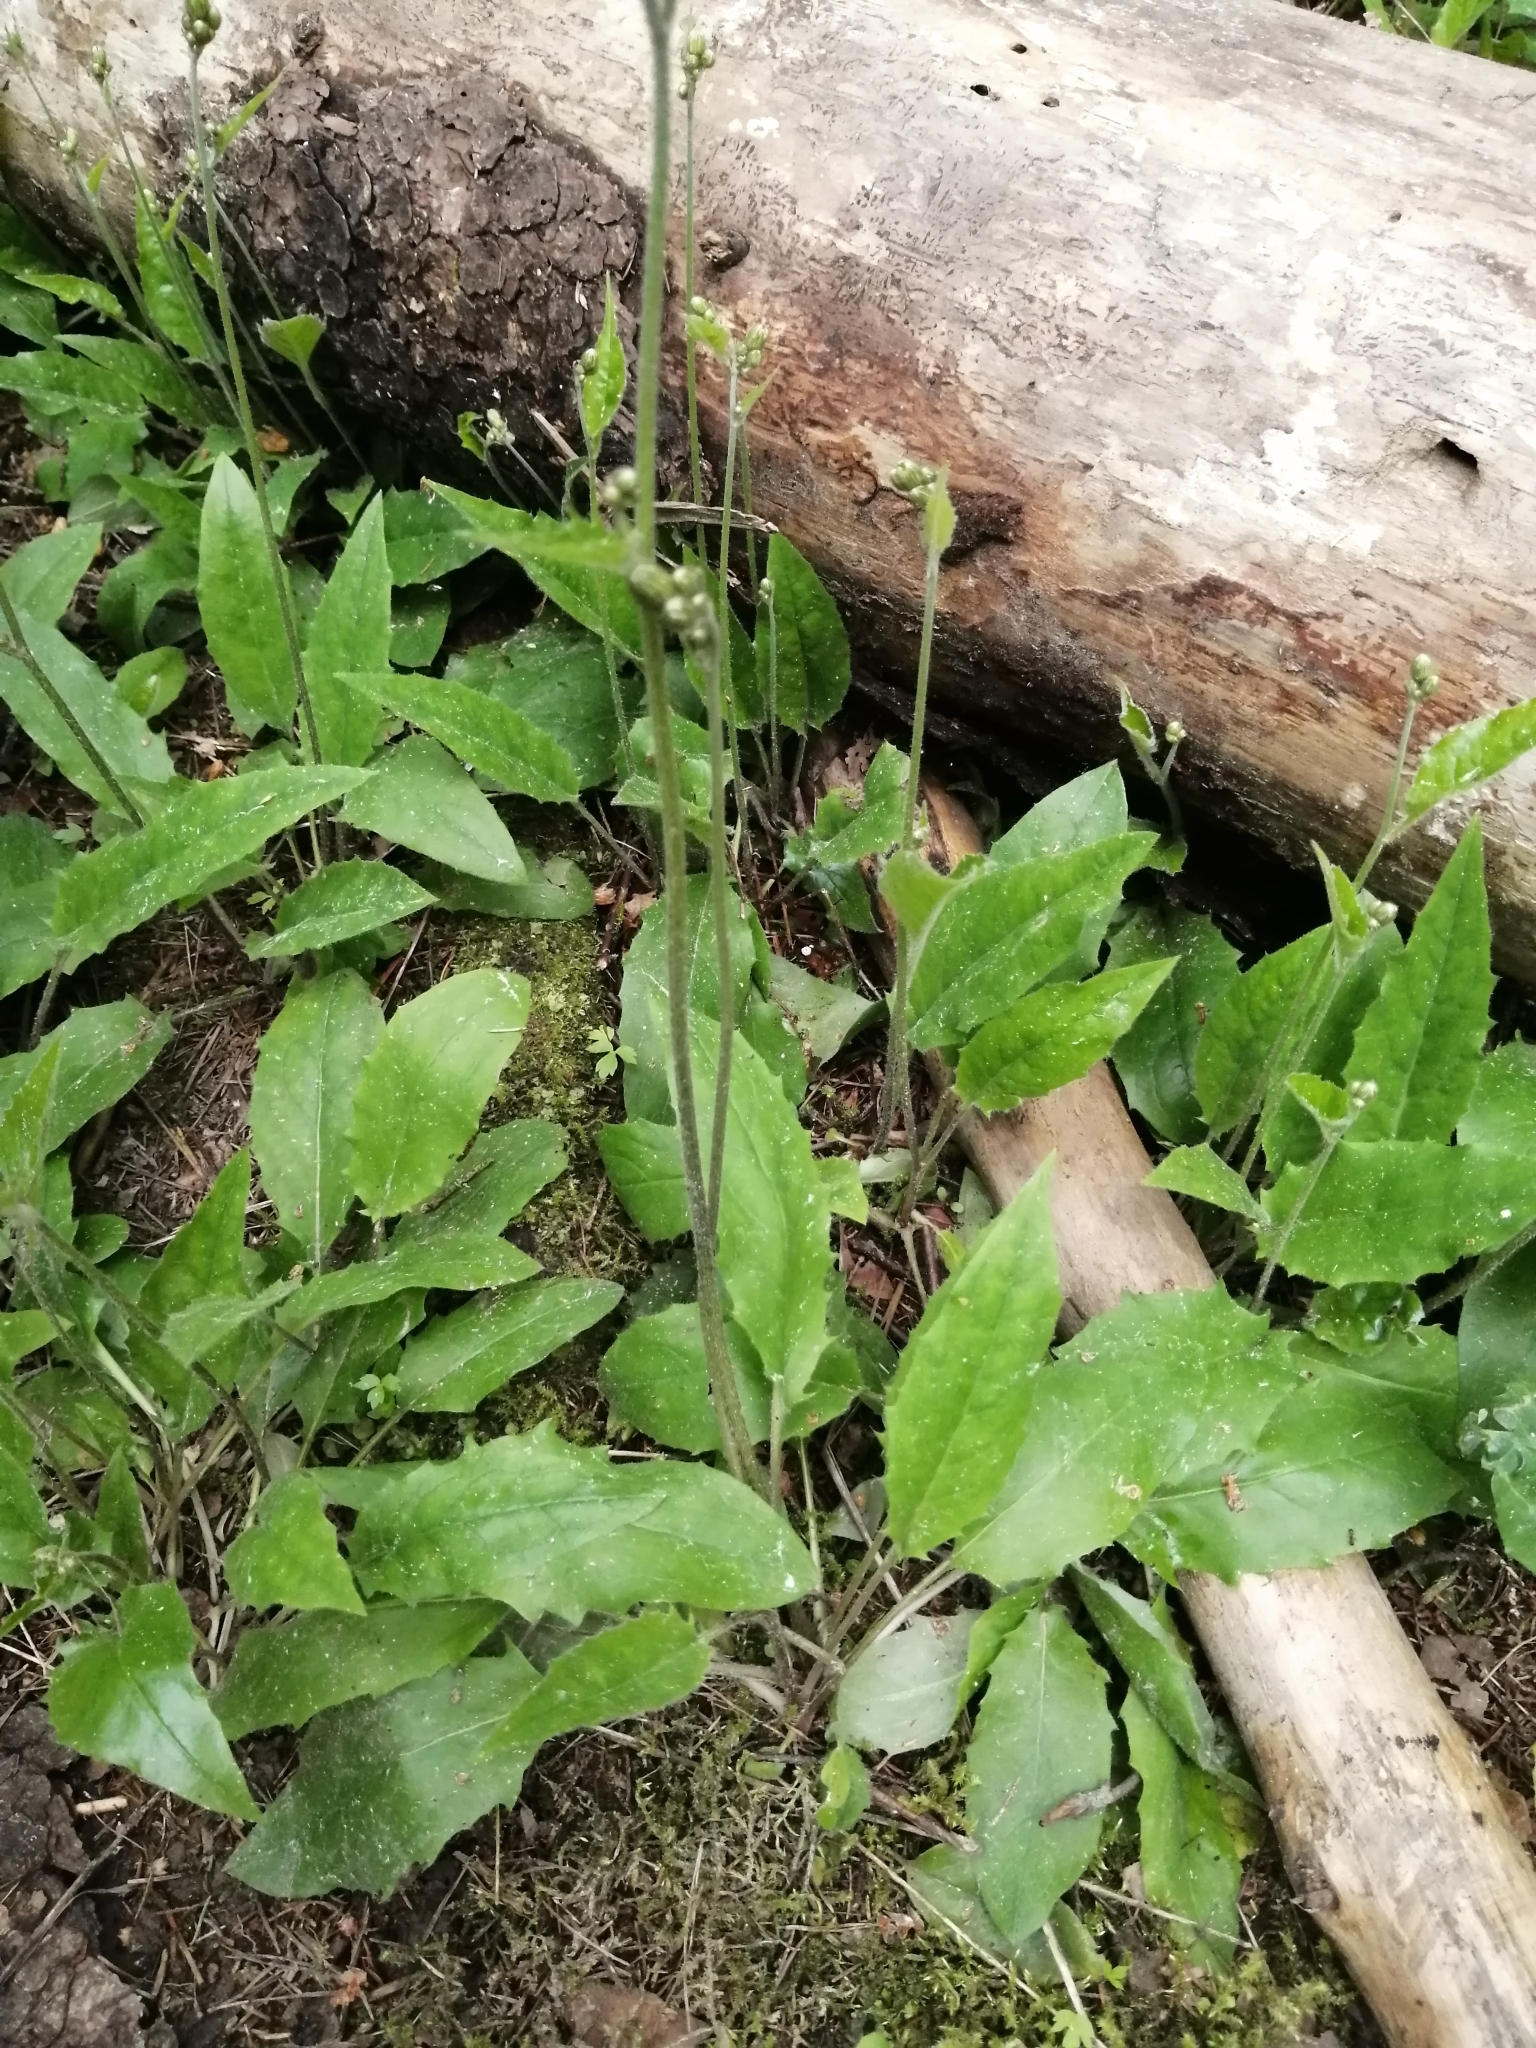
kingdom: Plantae
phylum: Tracheophyta
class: Magnoliopsida
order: Asterales
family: Asteraceae
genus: Hieracium
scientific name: Hieracium murorum
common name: Wall hawkweed
